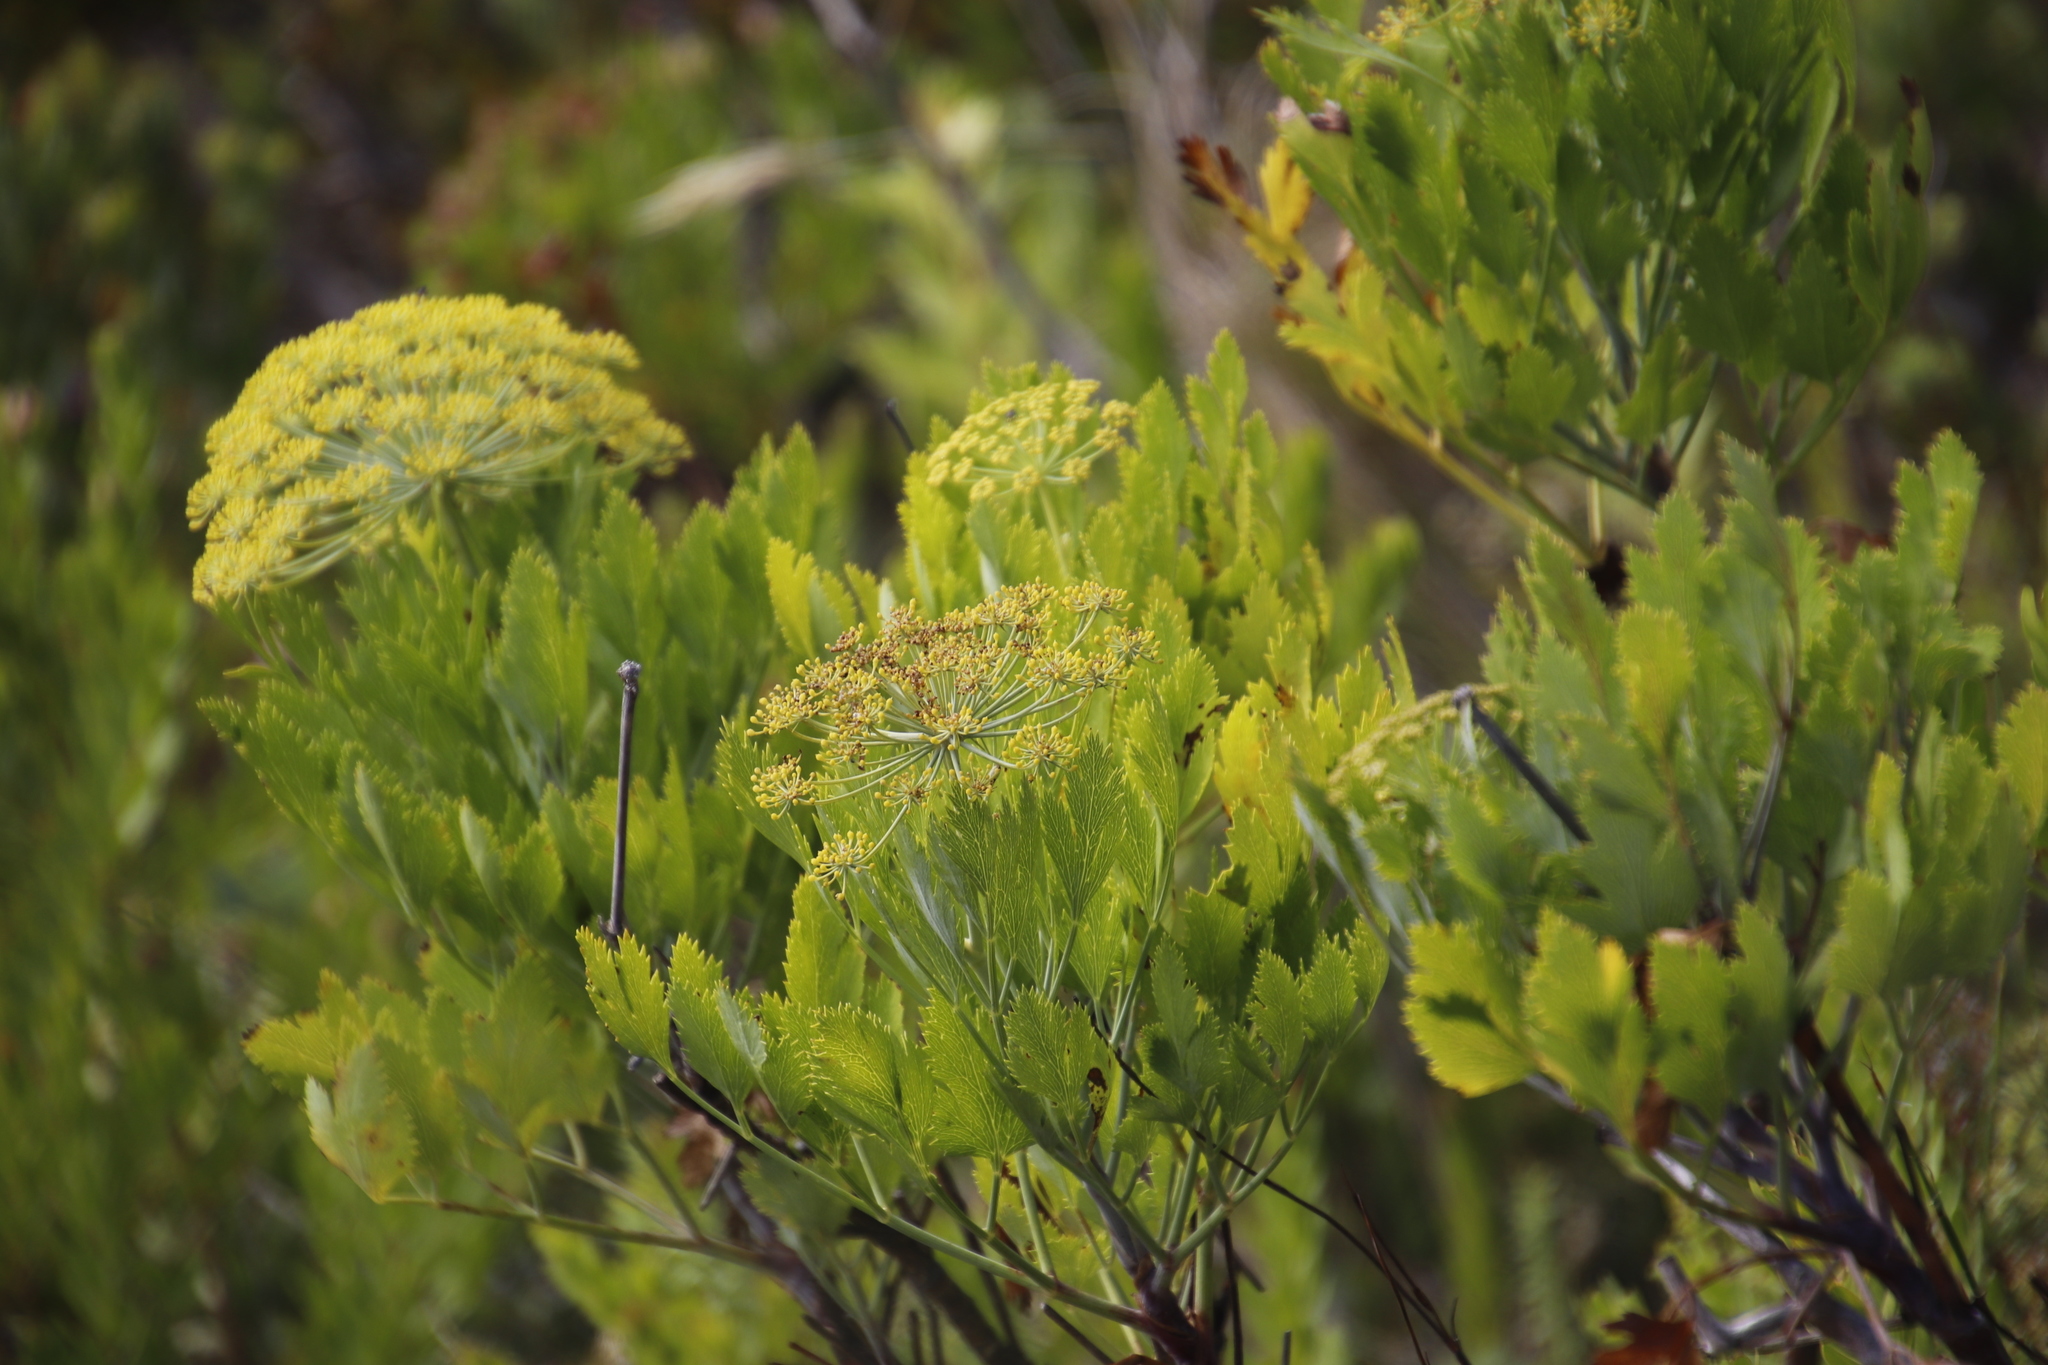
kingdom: Plantae
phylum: Tracheophyta
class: Magnoliopsida
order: Apiales
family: Apiaceae
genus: Notobubon
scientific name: Notobubon galbanum
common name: Blisterbush
